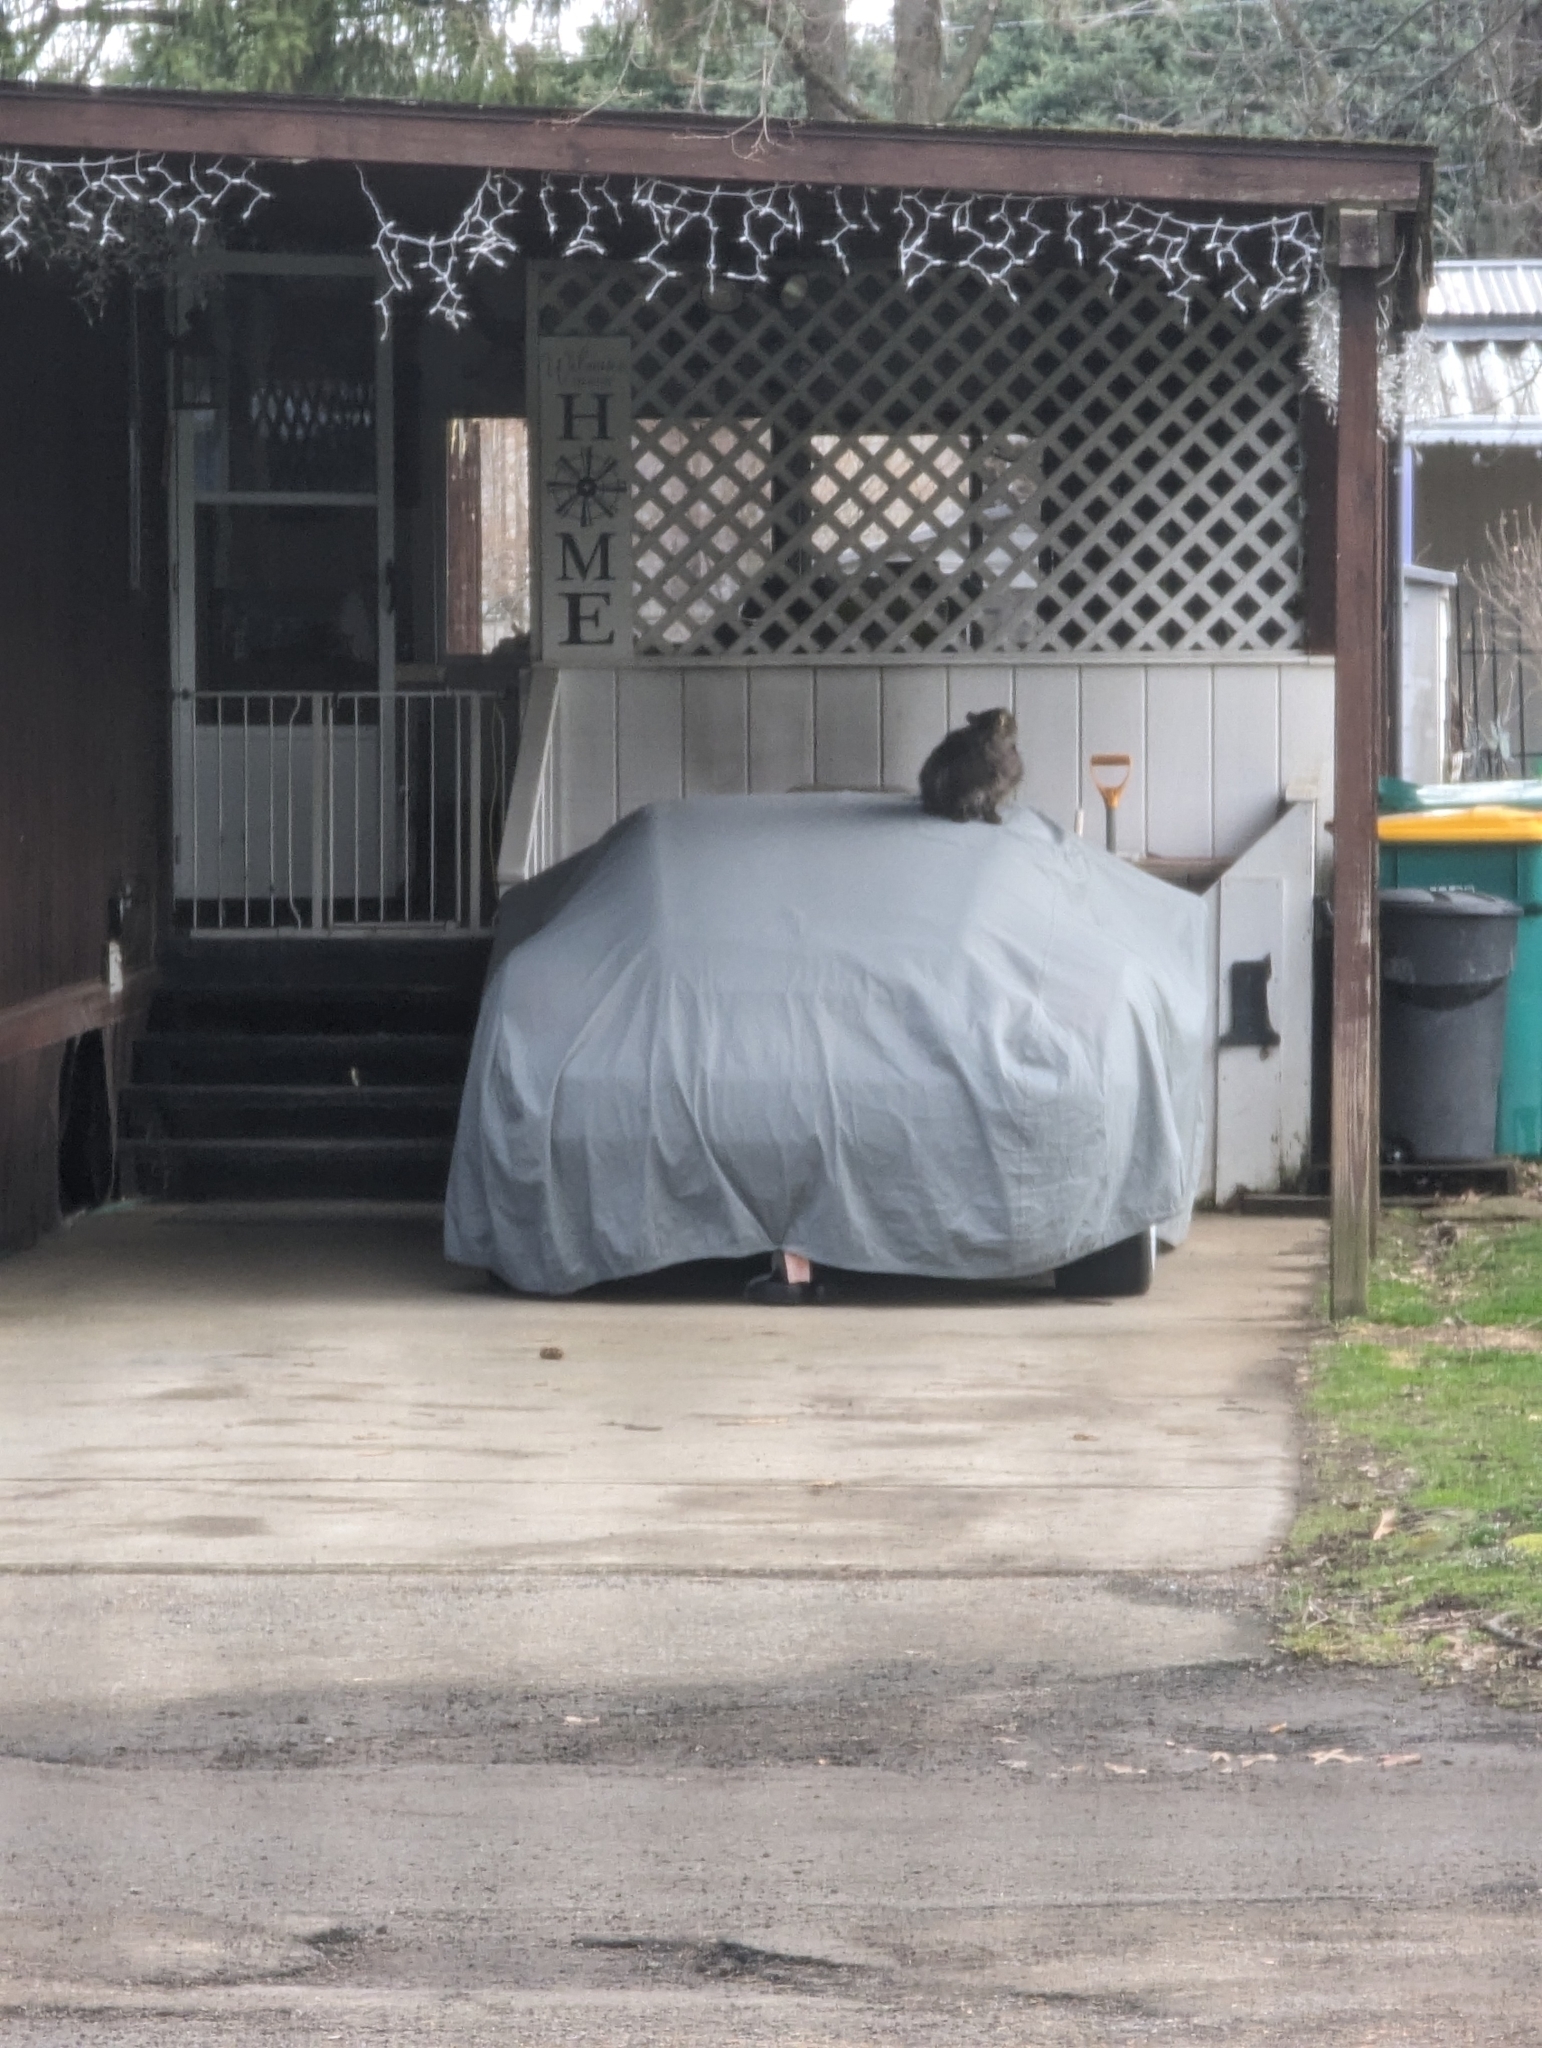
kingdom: Animalia
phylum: Chordata
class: Mammalia
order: Carnivora
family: Felidae
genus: Felis
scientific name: Felis catus
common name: Domestic cat
